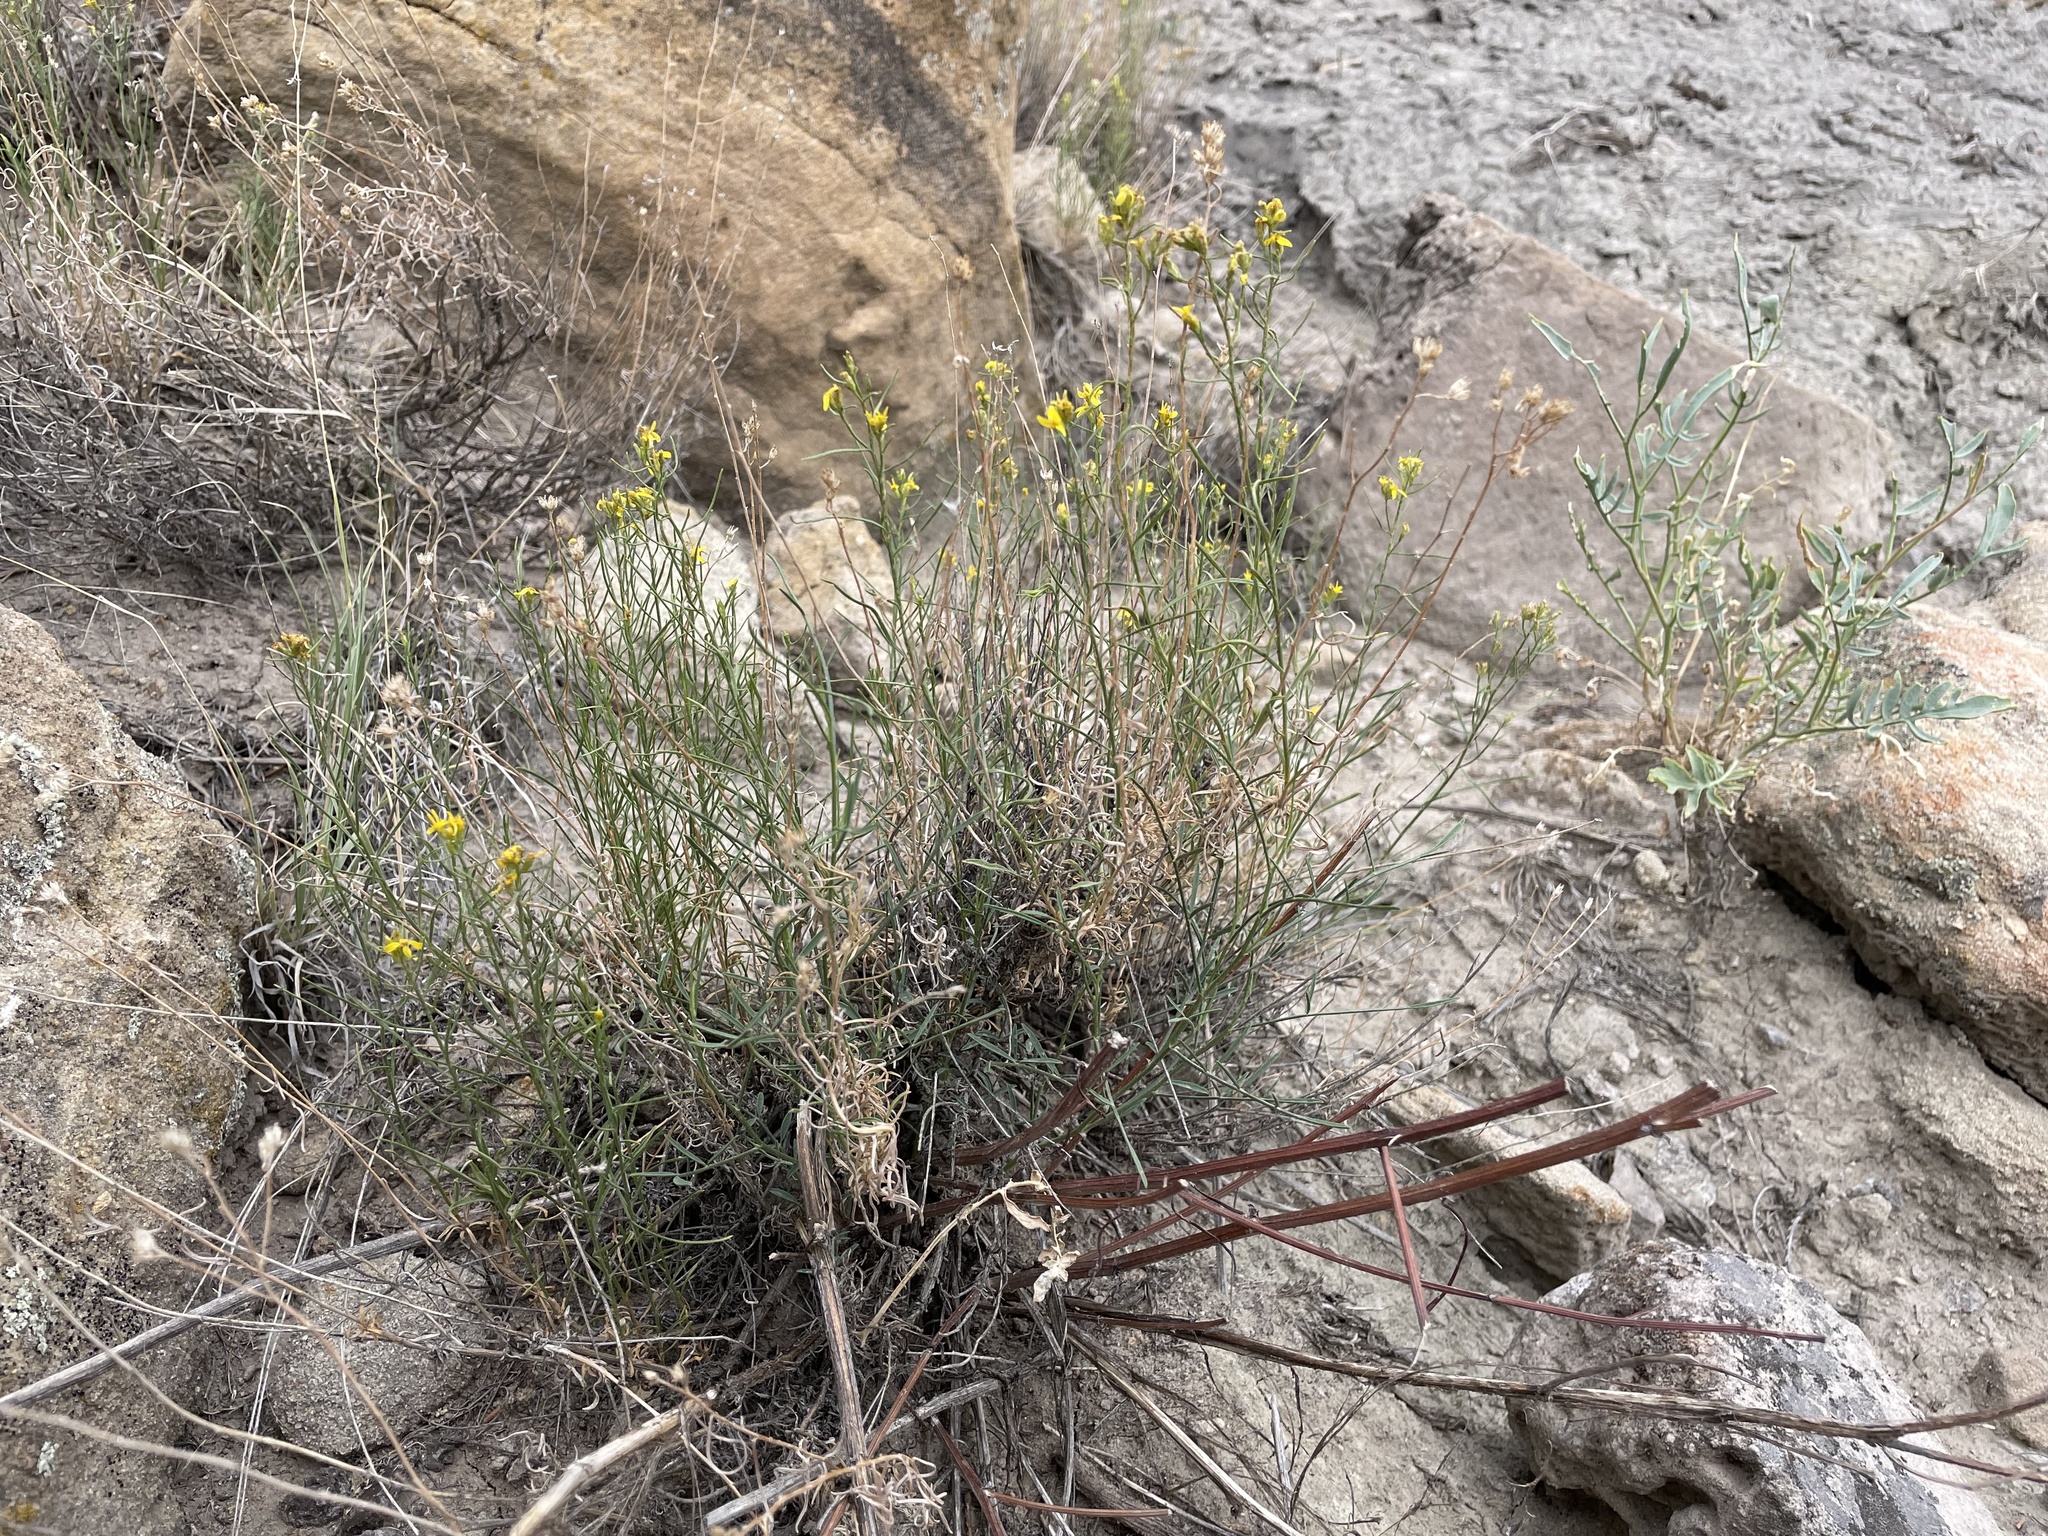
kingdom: Plantae
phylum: Tracheophyta
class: Magnoliopsida
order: Asterales
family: Asteraceae
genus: Gutierrezia
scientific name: Gutierrezia sarothrae
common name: Broom snakeweed
